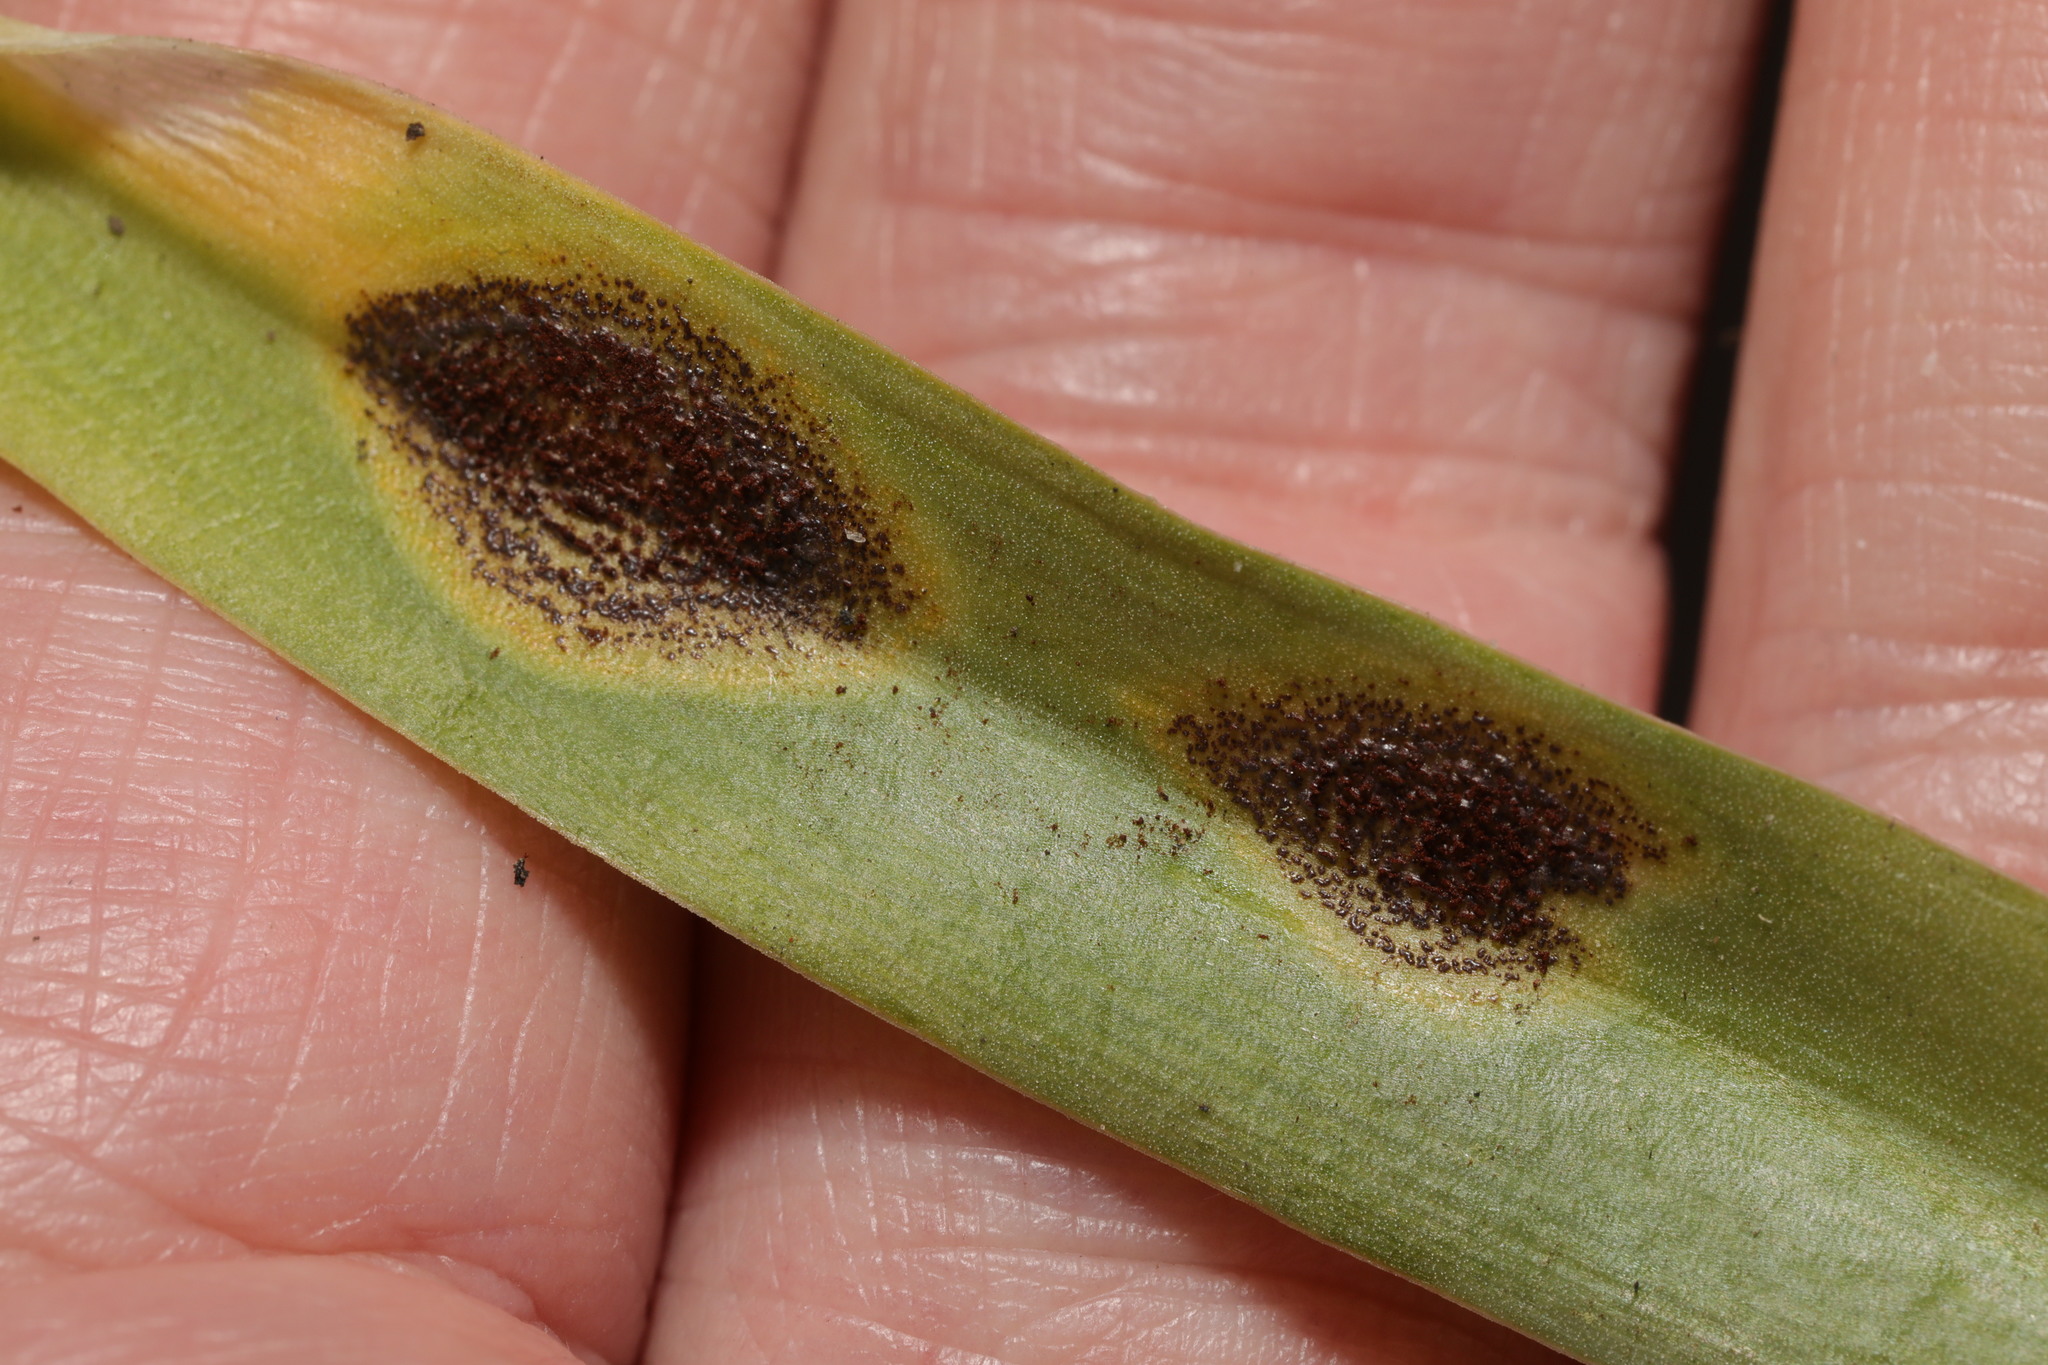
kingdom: Fungi
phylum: Basidiomycota
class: Pucciniomycetes
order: Pucciniales
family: Pucciniaceae
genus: Uromyces
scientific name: Uromyces hyacinthi
